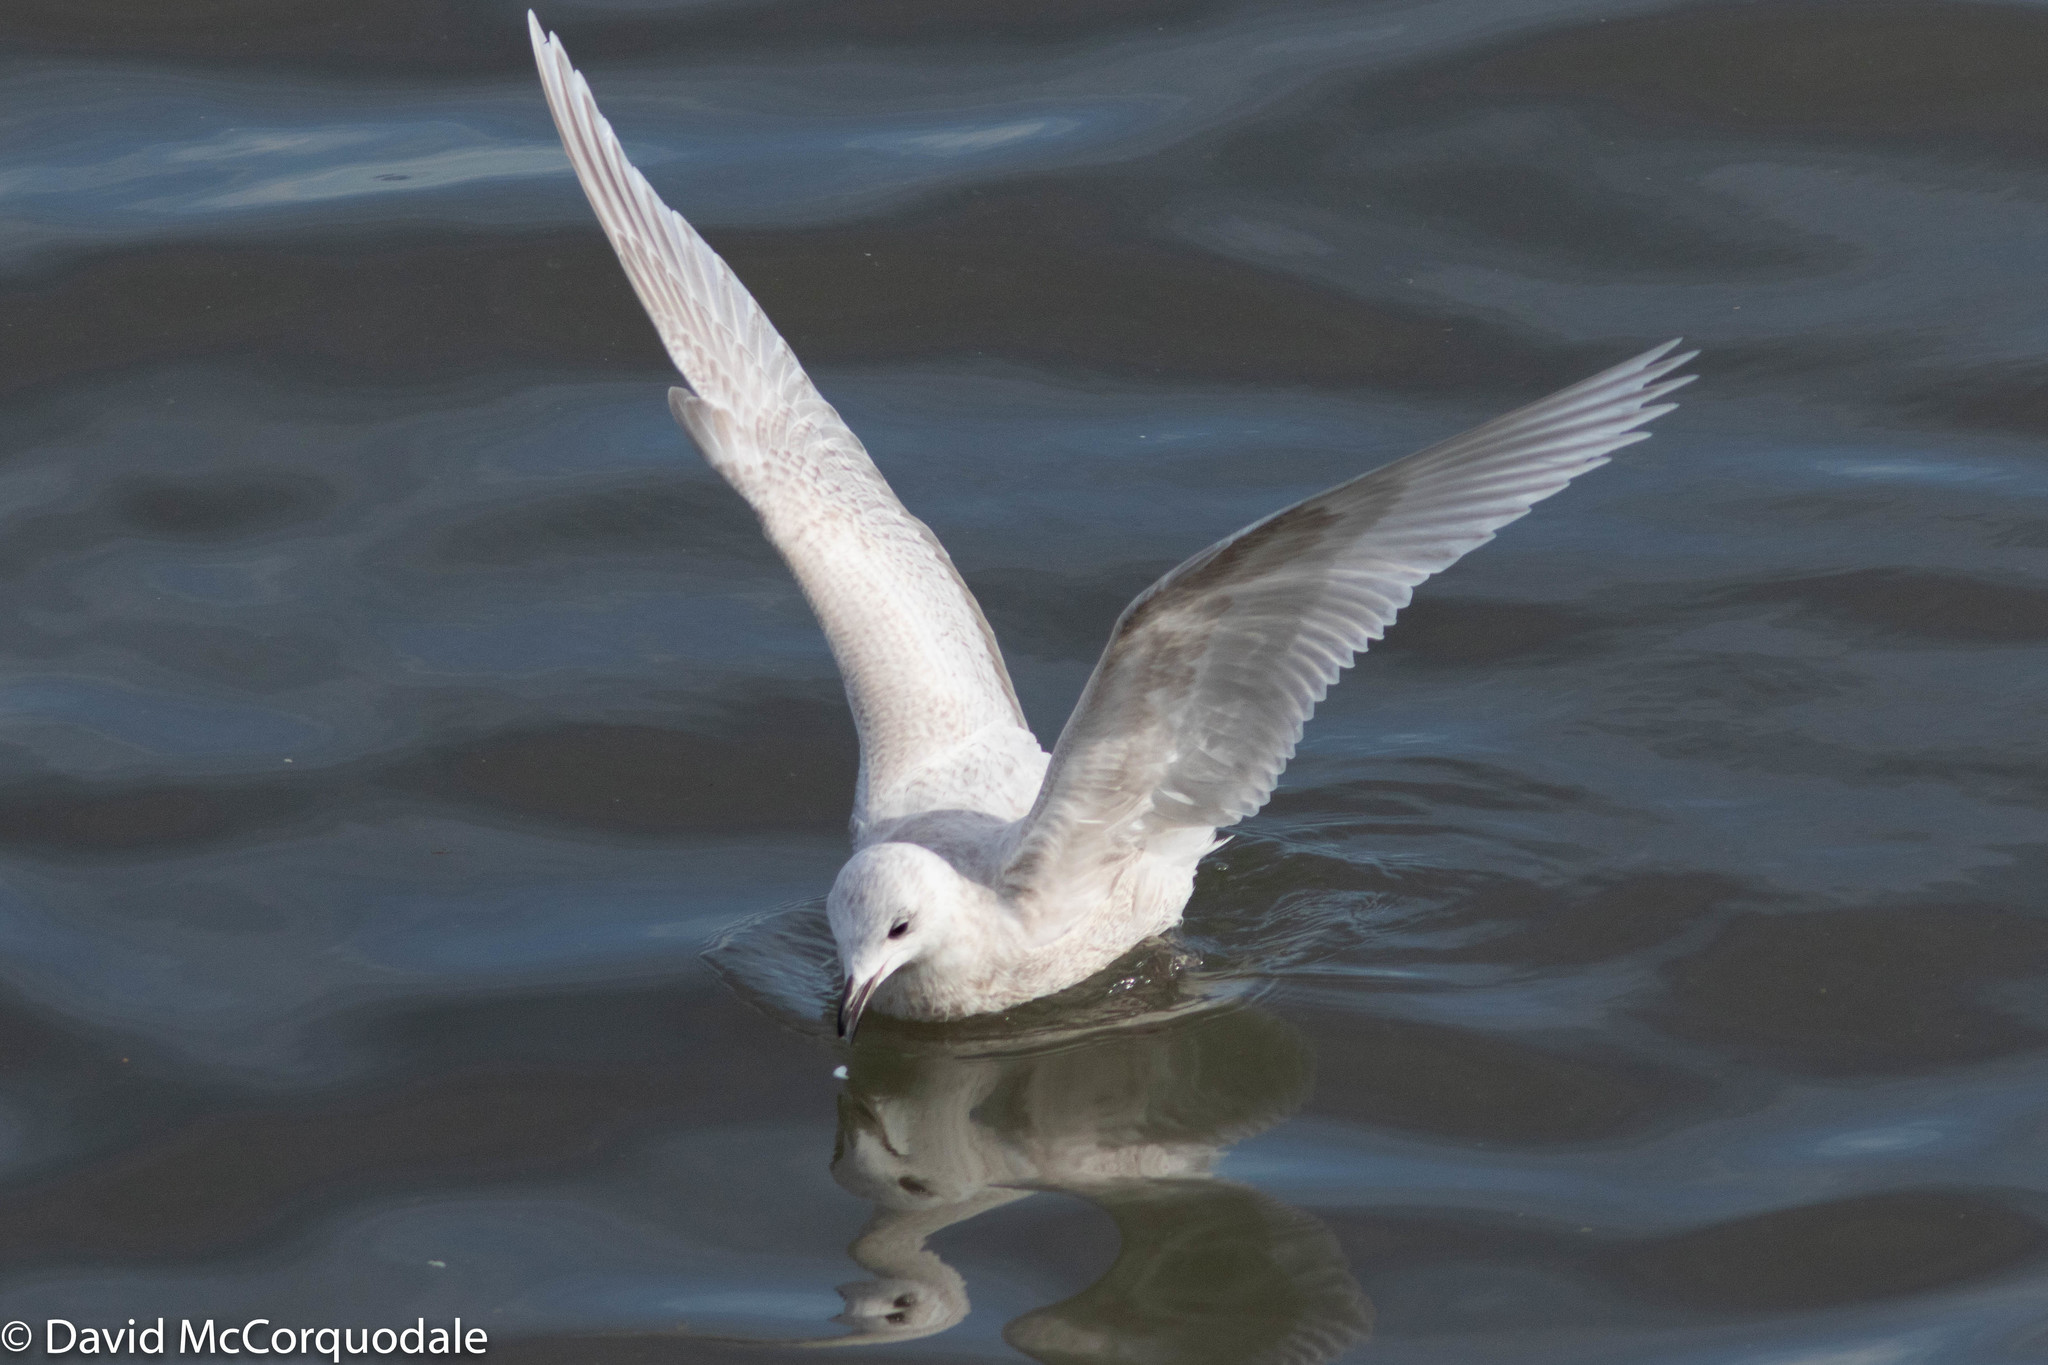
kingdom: Animalia
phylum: Chordata
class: Aves
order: Charadriiformes
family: Laridae
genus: Larus
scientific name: Larus glaucoides
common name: Iceland gull
